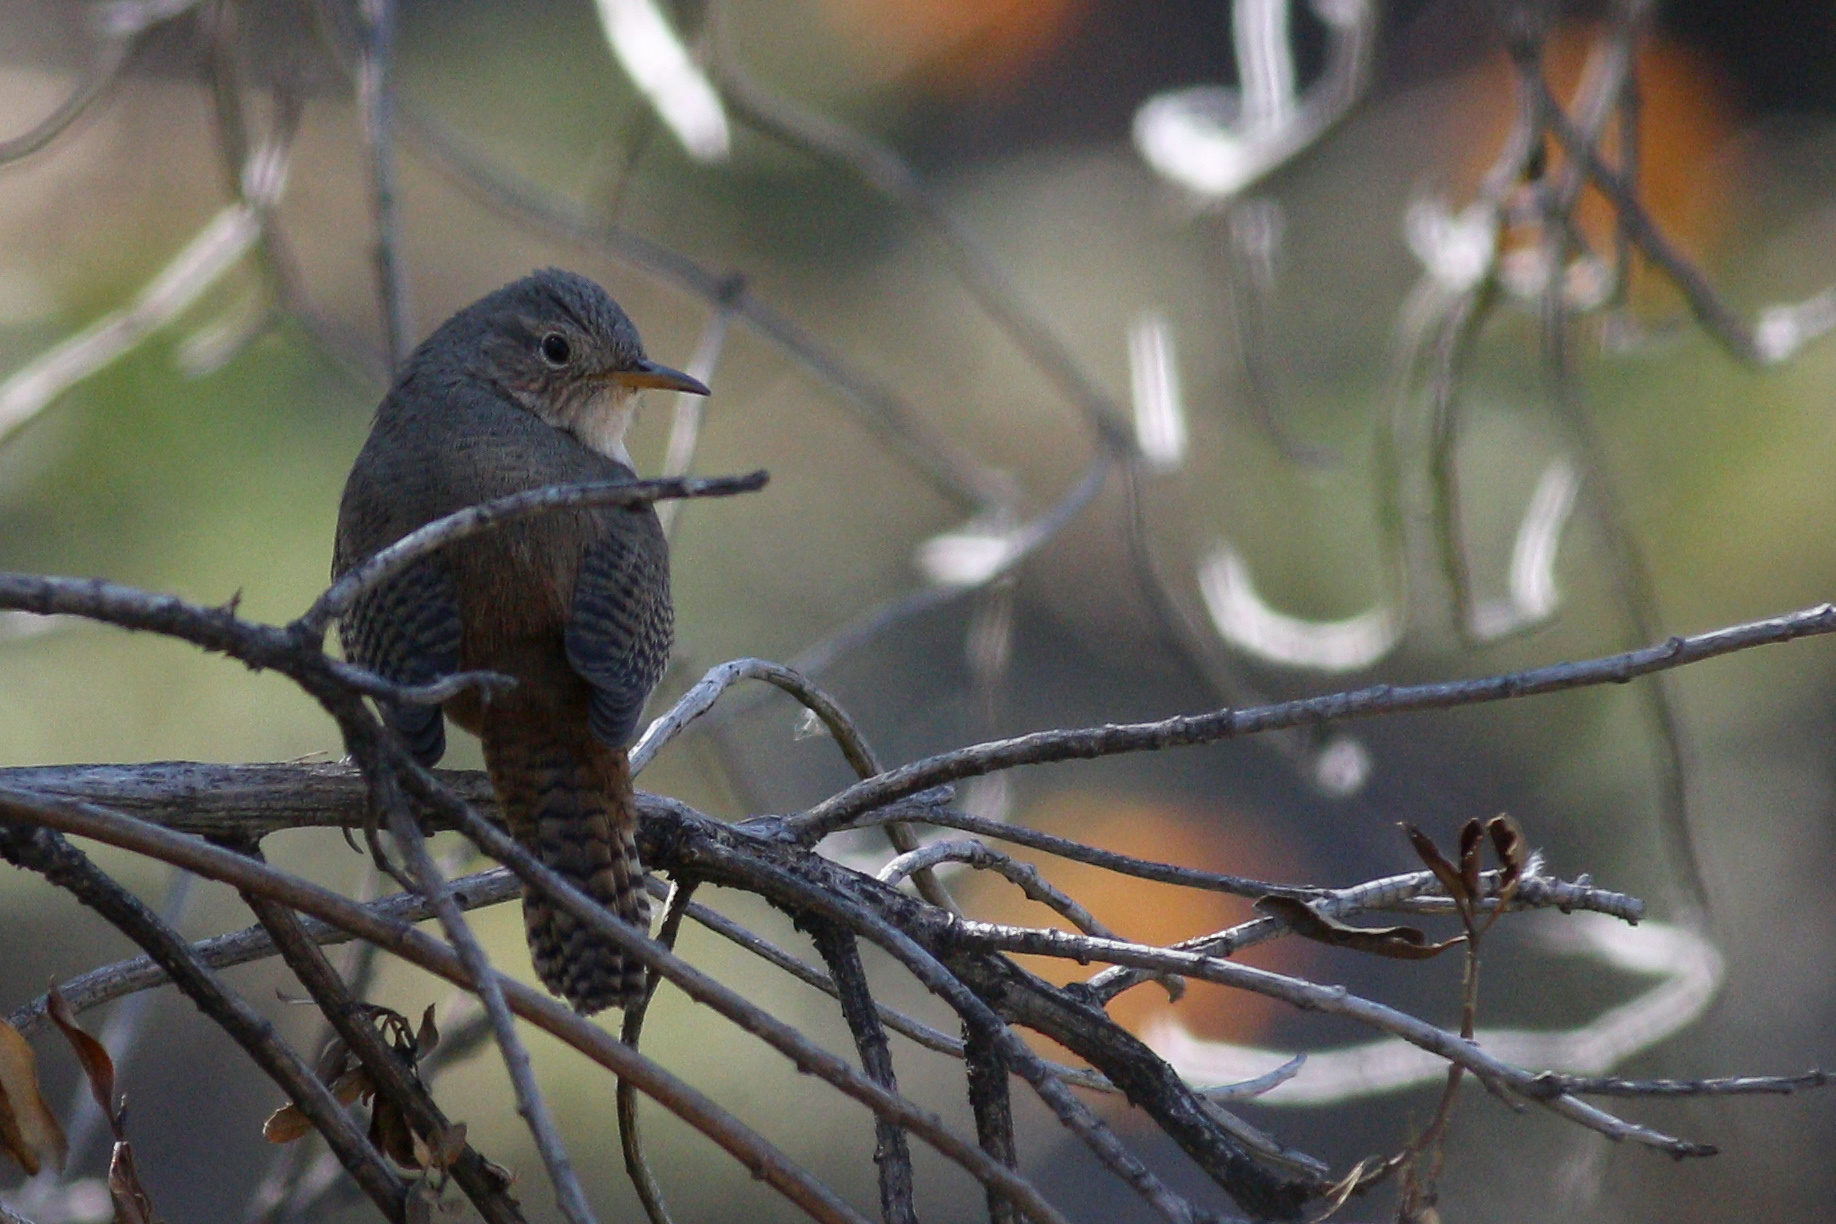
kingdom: Animalia
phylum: Chordata
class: Aves
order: Passeriformes
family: Troglodytidae
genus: Troglodytes
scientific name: Troglodytes aedon
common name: House wren
